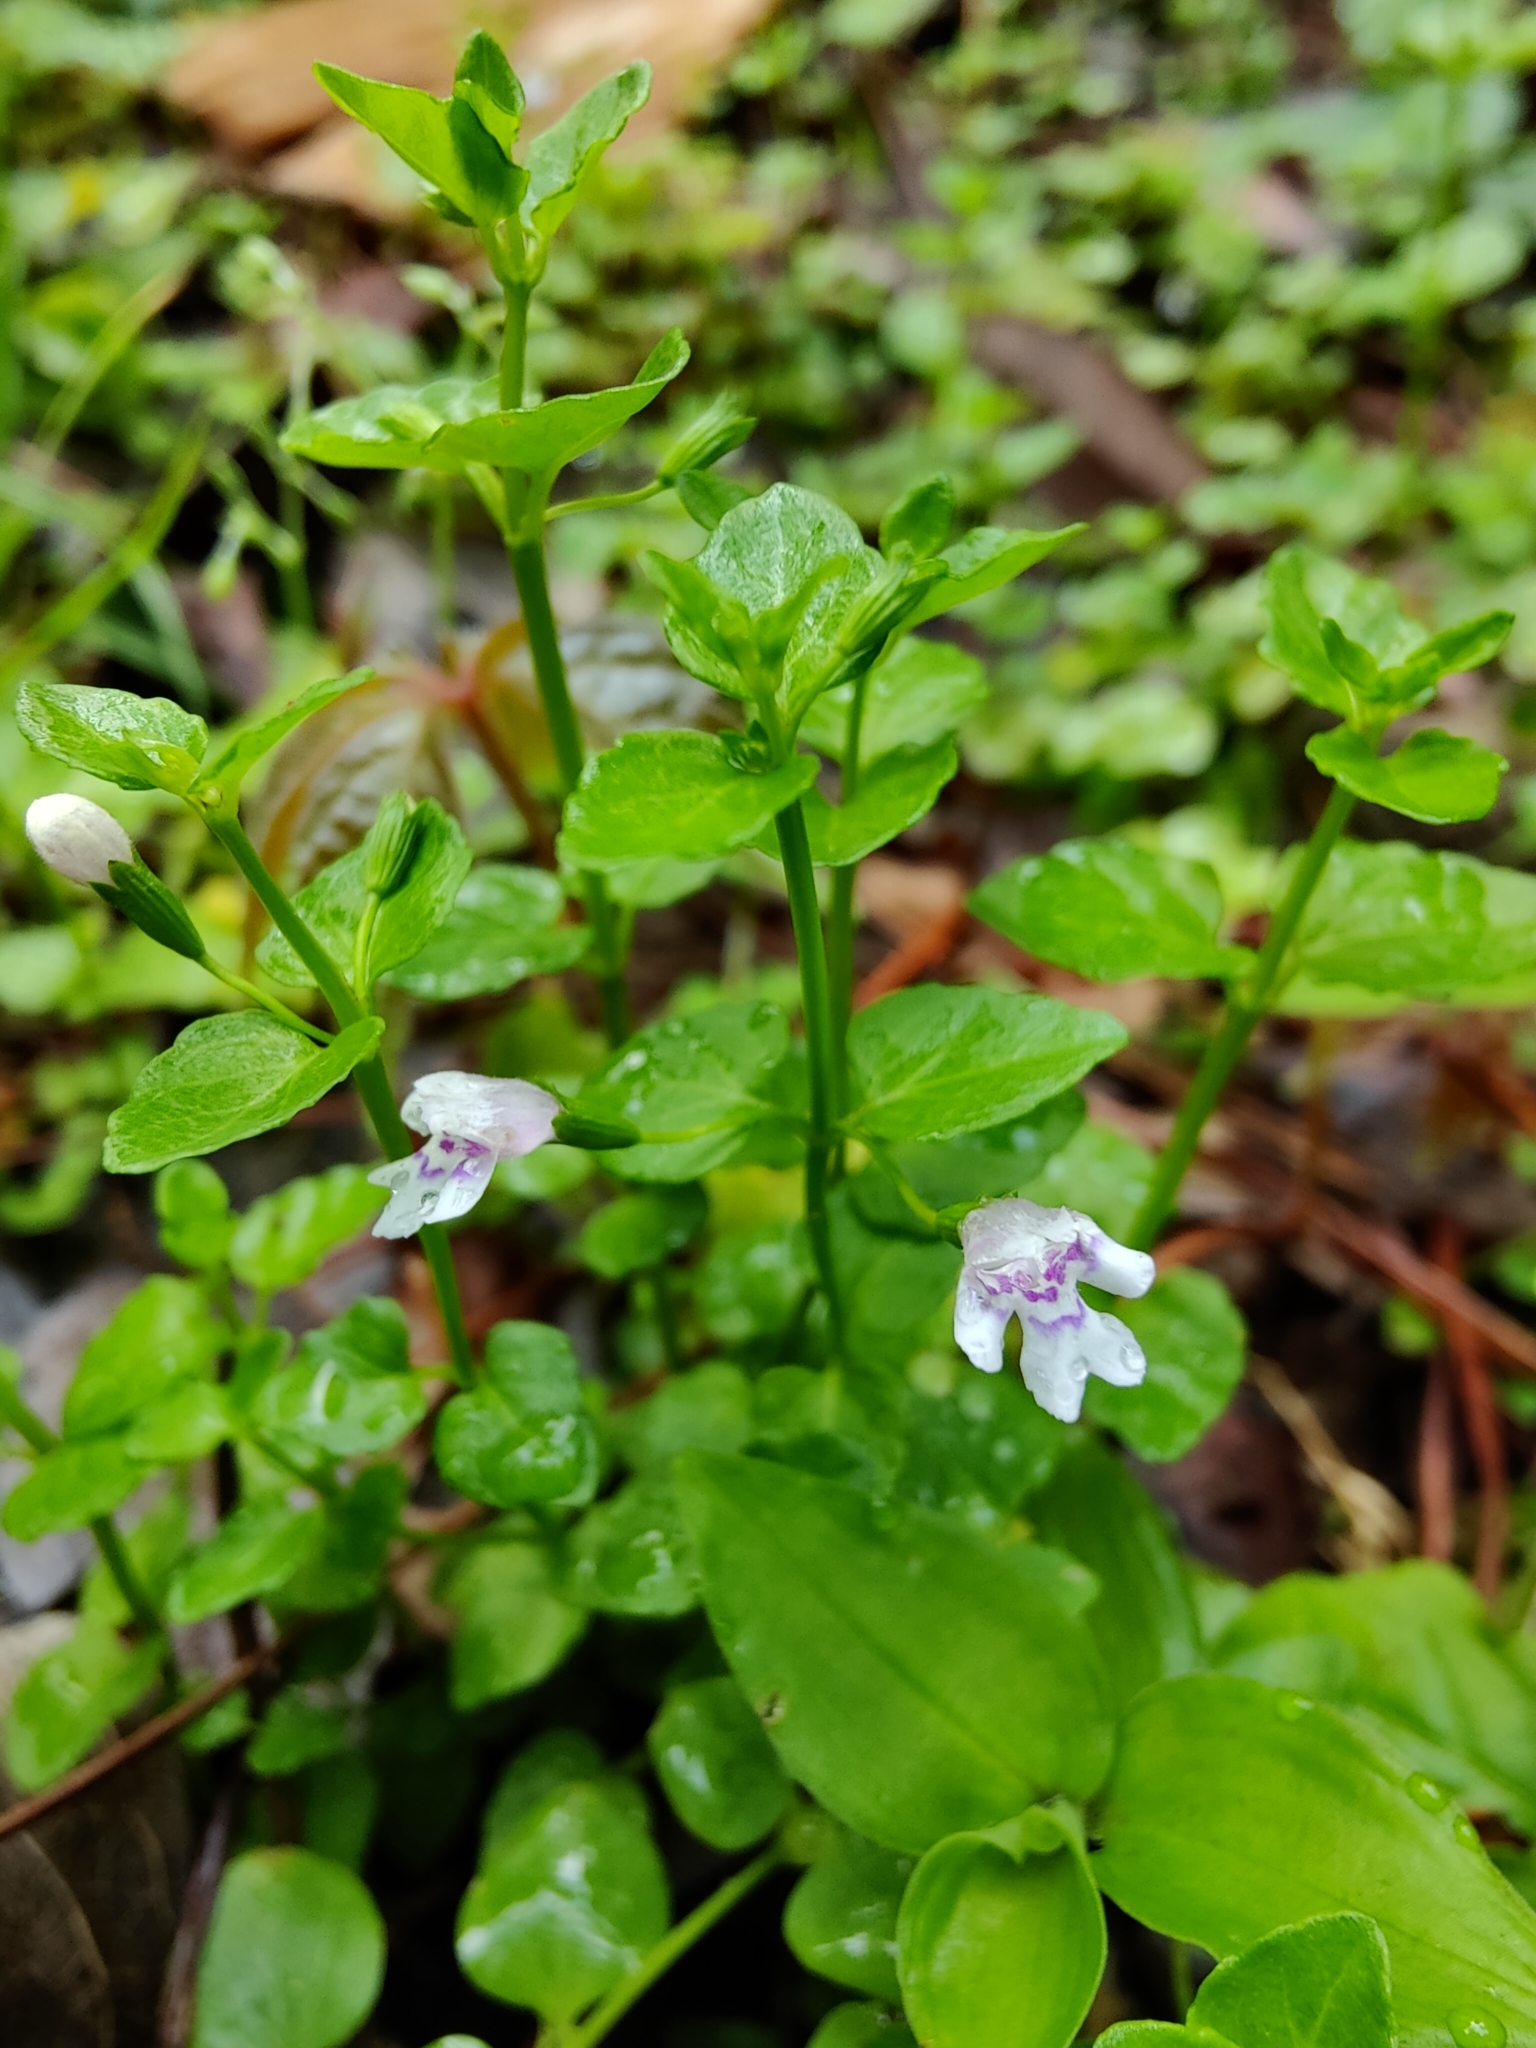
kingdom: Plantae
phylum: Tracheophyta
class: Magnoliopsida
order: Lamiales
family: Lamiaceae
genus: Clinopodium
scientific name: Clinopodium brownei
